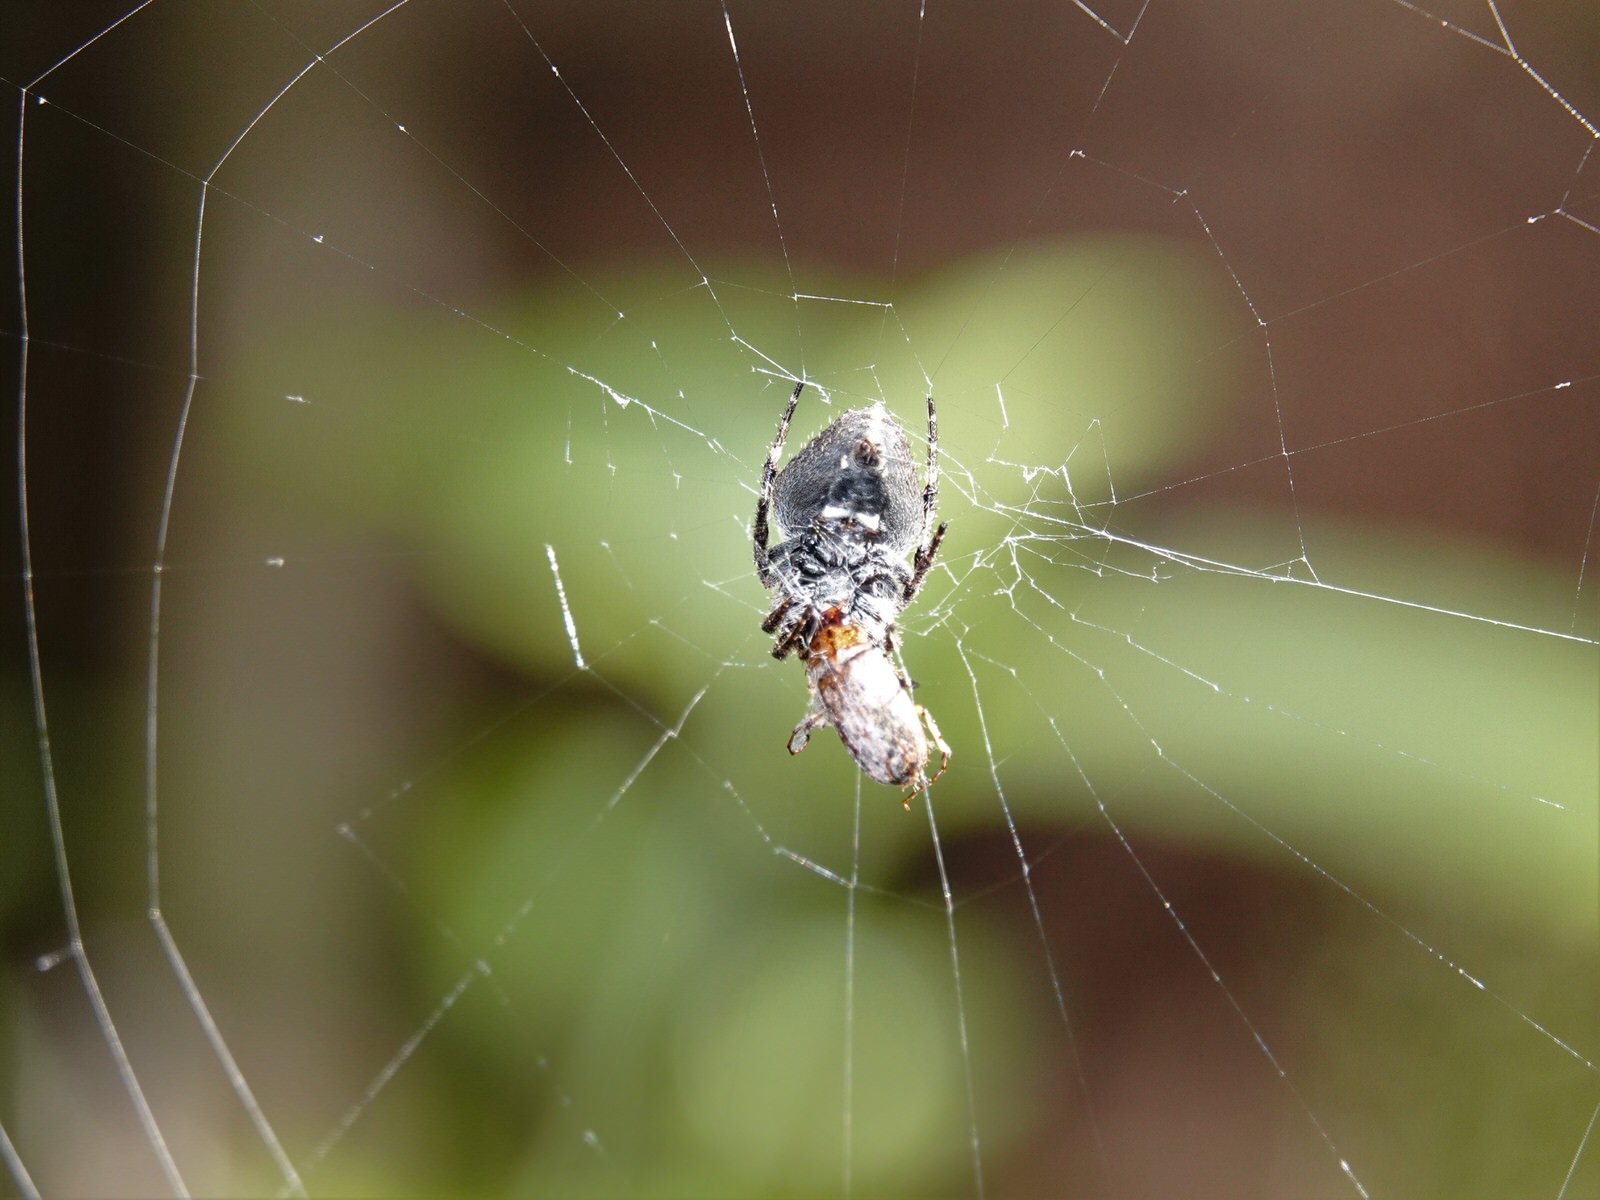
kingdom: Animalia
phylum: Arthropoda
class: Arachnida
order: Araneae
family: Araneidae
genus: Eriophora
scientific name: Eriophora pustulosa
